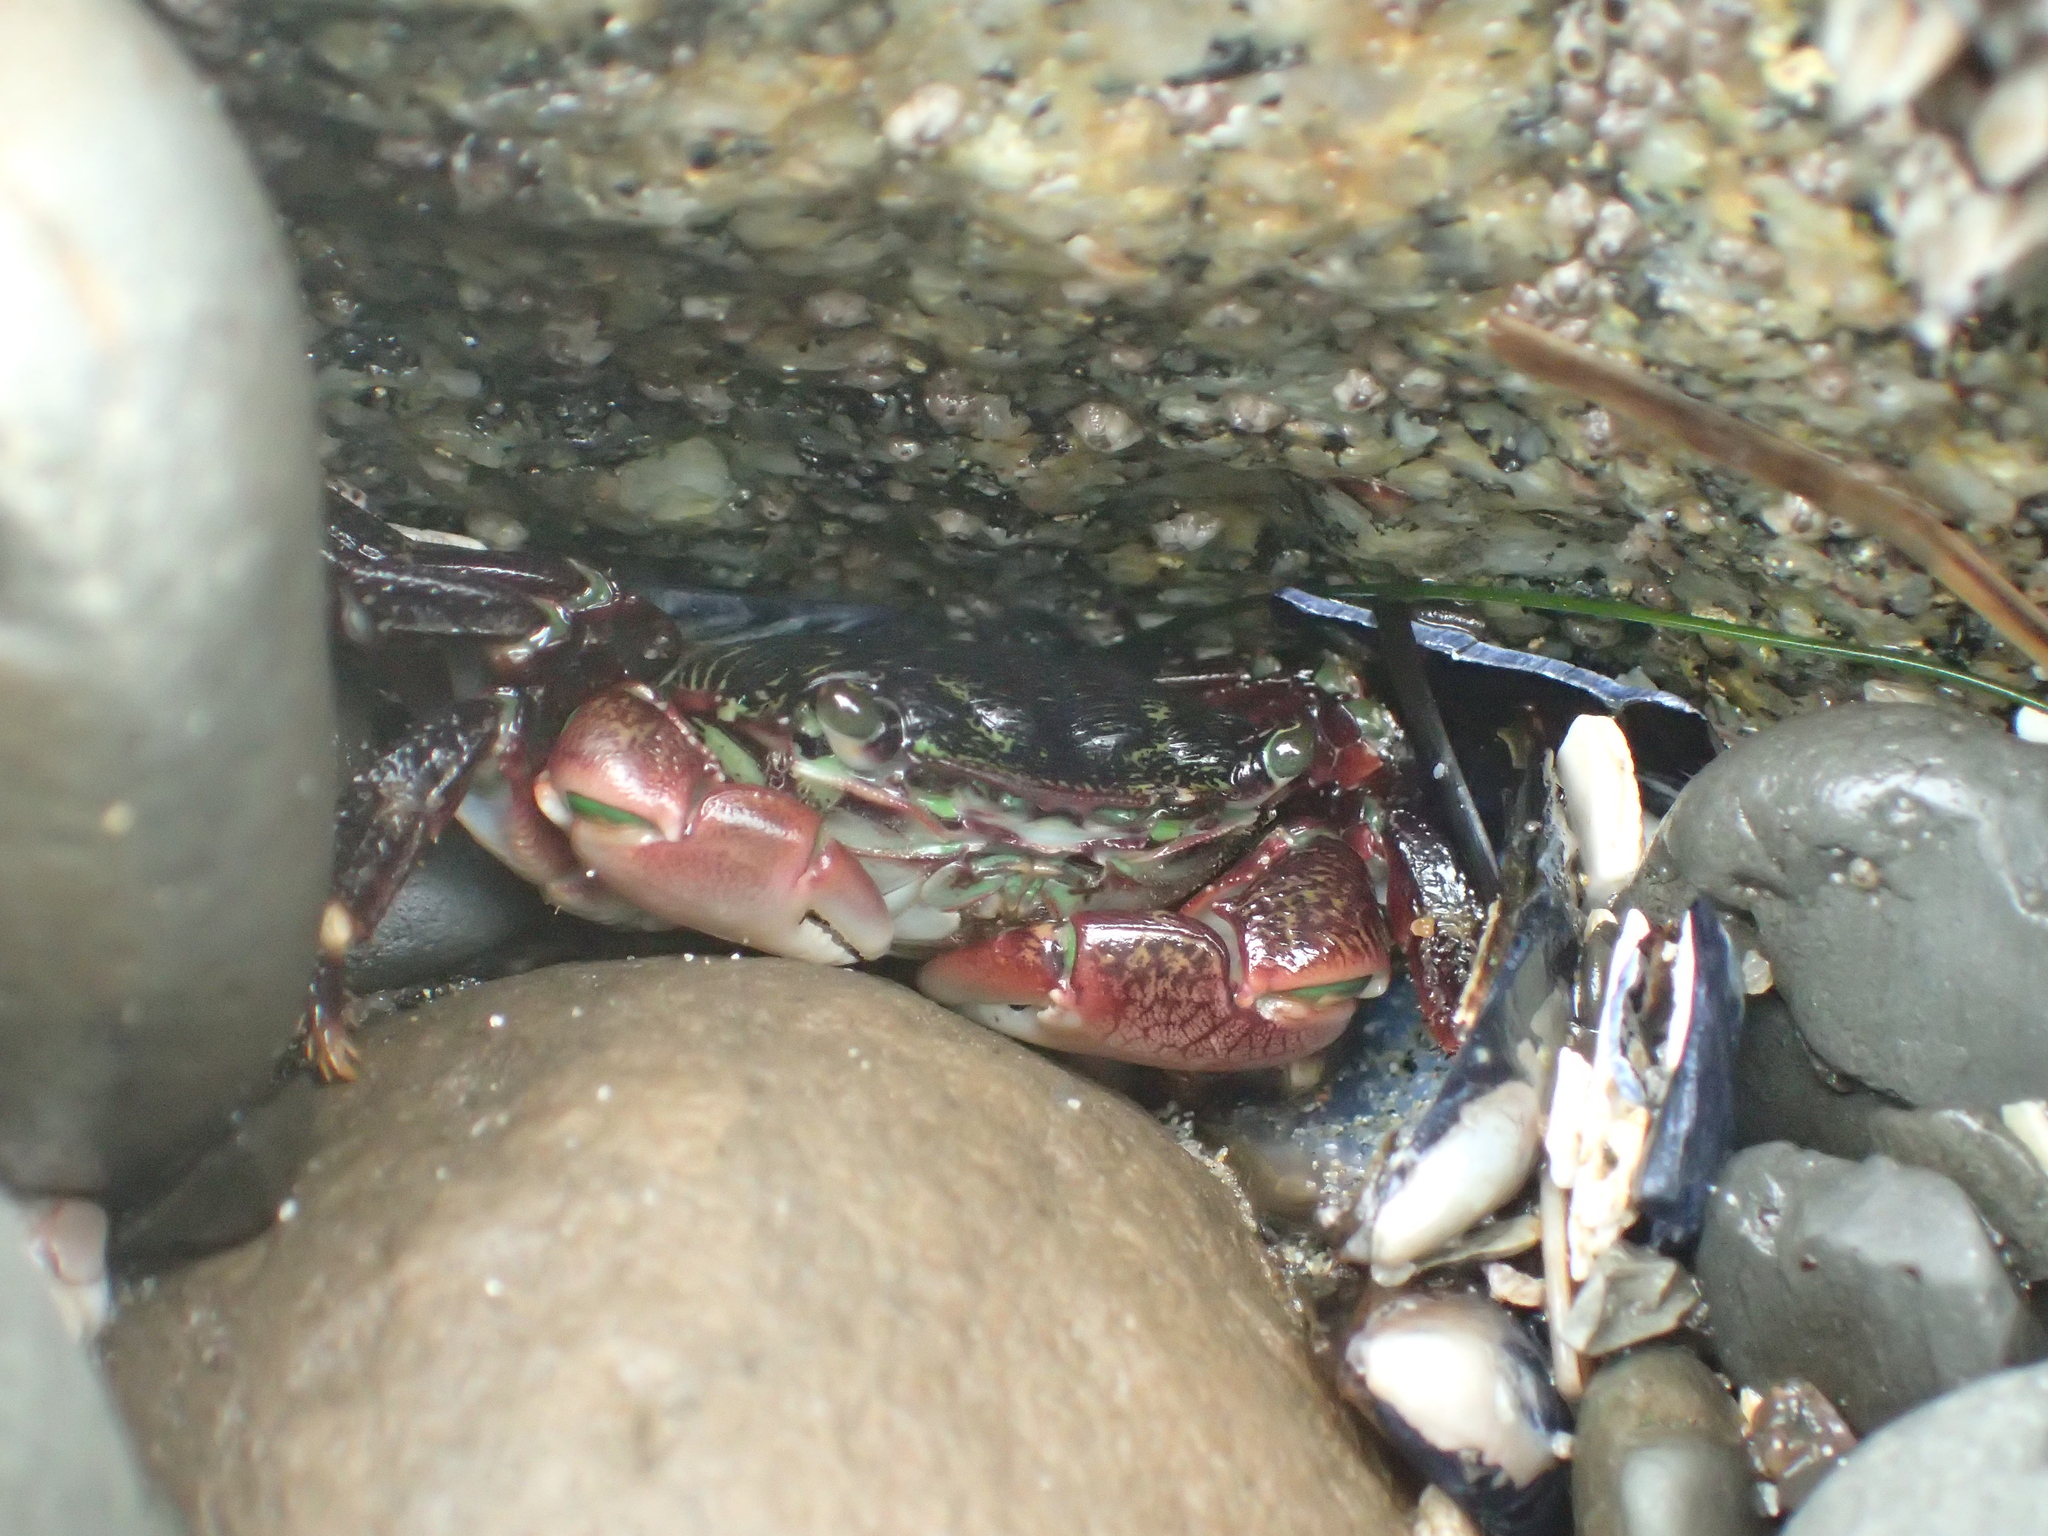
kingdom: Animalia
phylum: Arthropoda
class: Malacostraca
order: Decapoda
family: Grapsidae
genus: Pachygrapsus
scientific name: Pachygrapsus crassipes
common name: Striped shore crab
